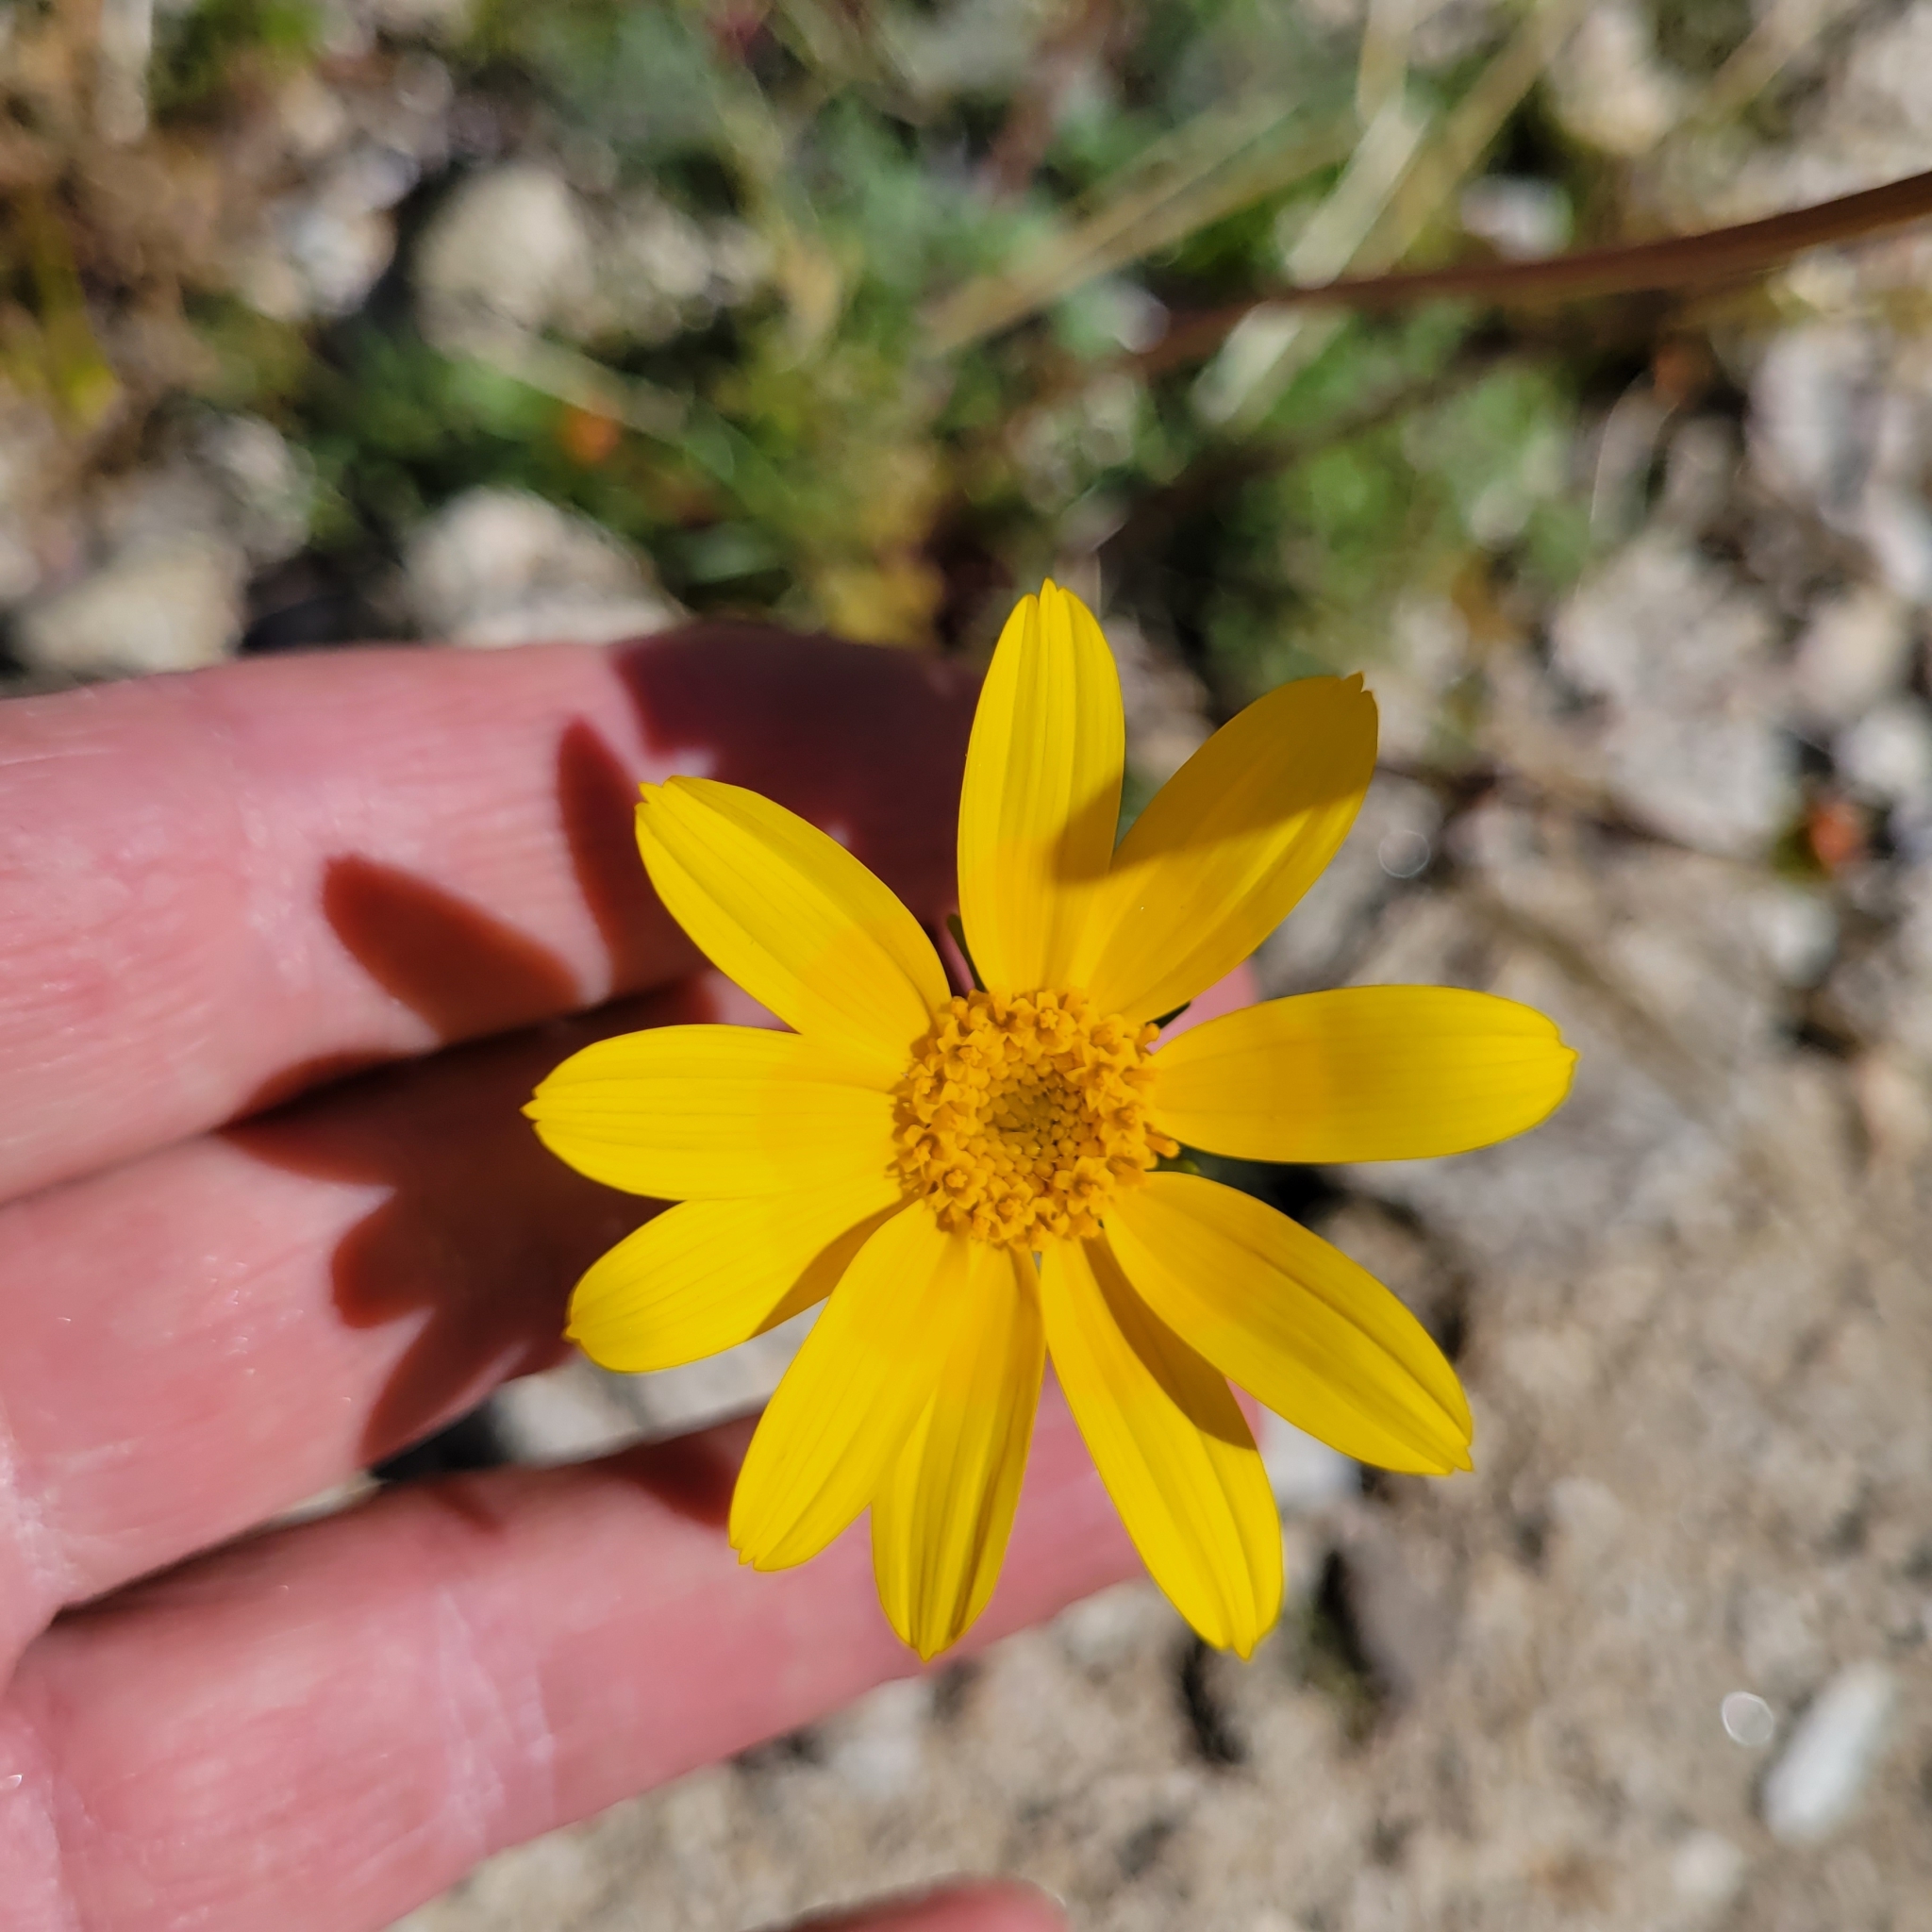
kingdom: Plantae
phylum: Tracheophyta
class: Magnoliopsida
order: Asterales
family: Asteraceae
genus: Coreopsis
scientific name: Coreopsis bigelovii
